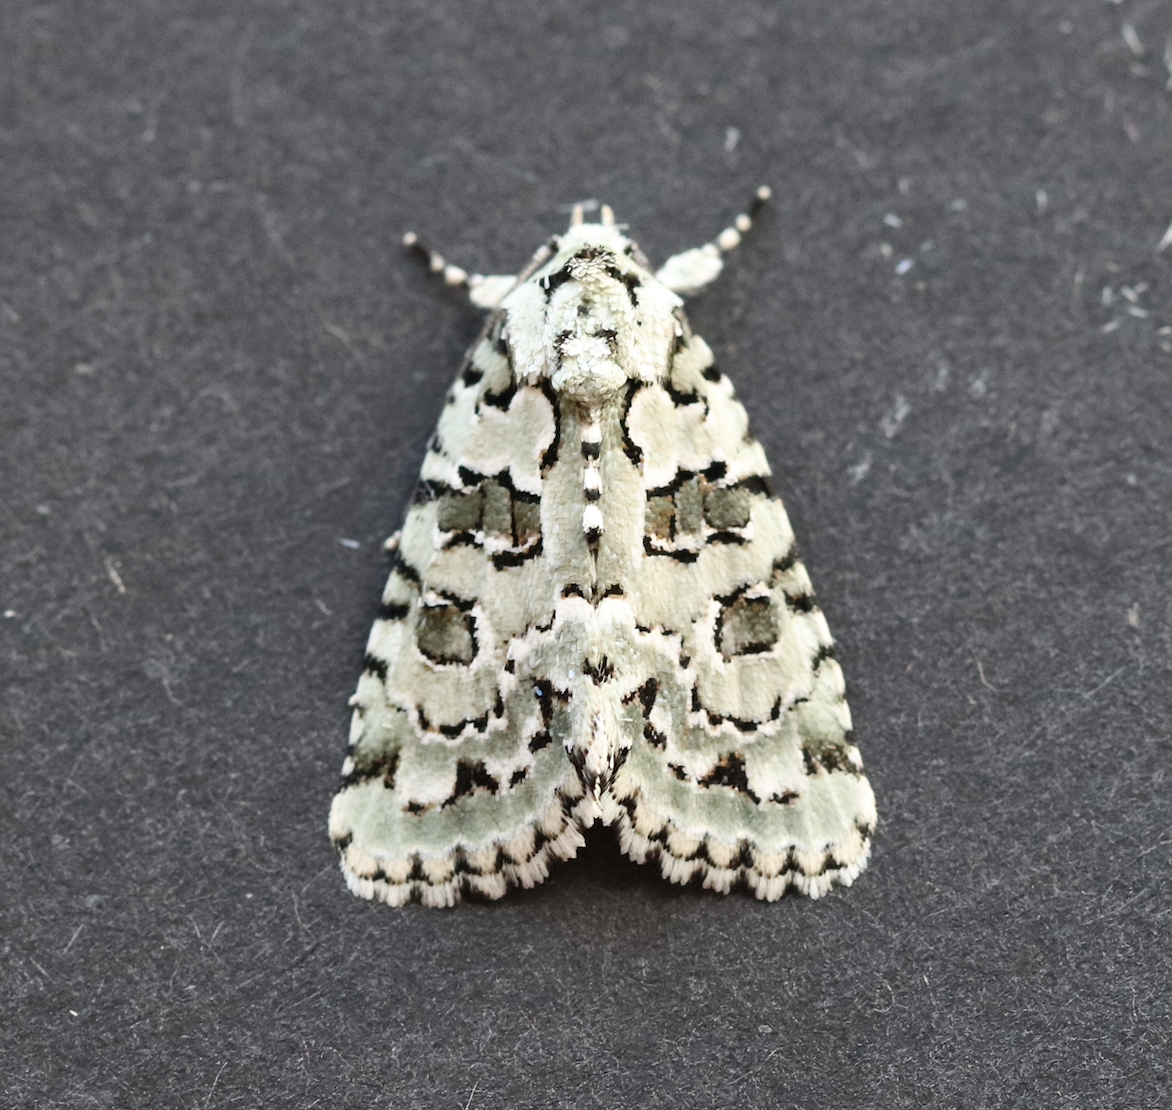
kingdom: Animalia
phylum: Arthropoda
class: Insecta
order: Lepidoptera
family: Noctuidae
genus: Nyctobrya
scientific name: Nyctobrya muralis
